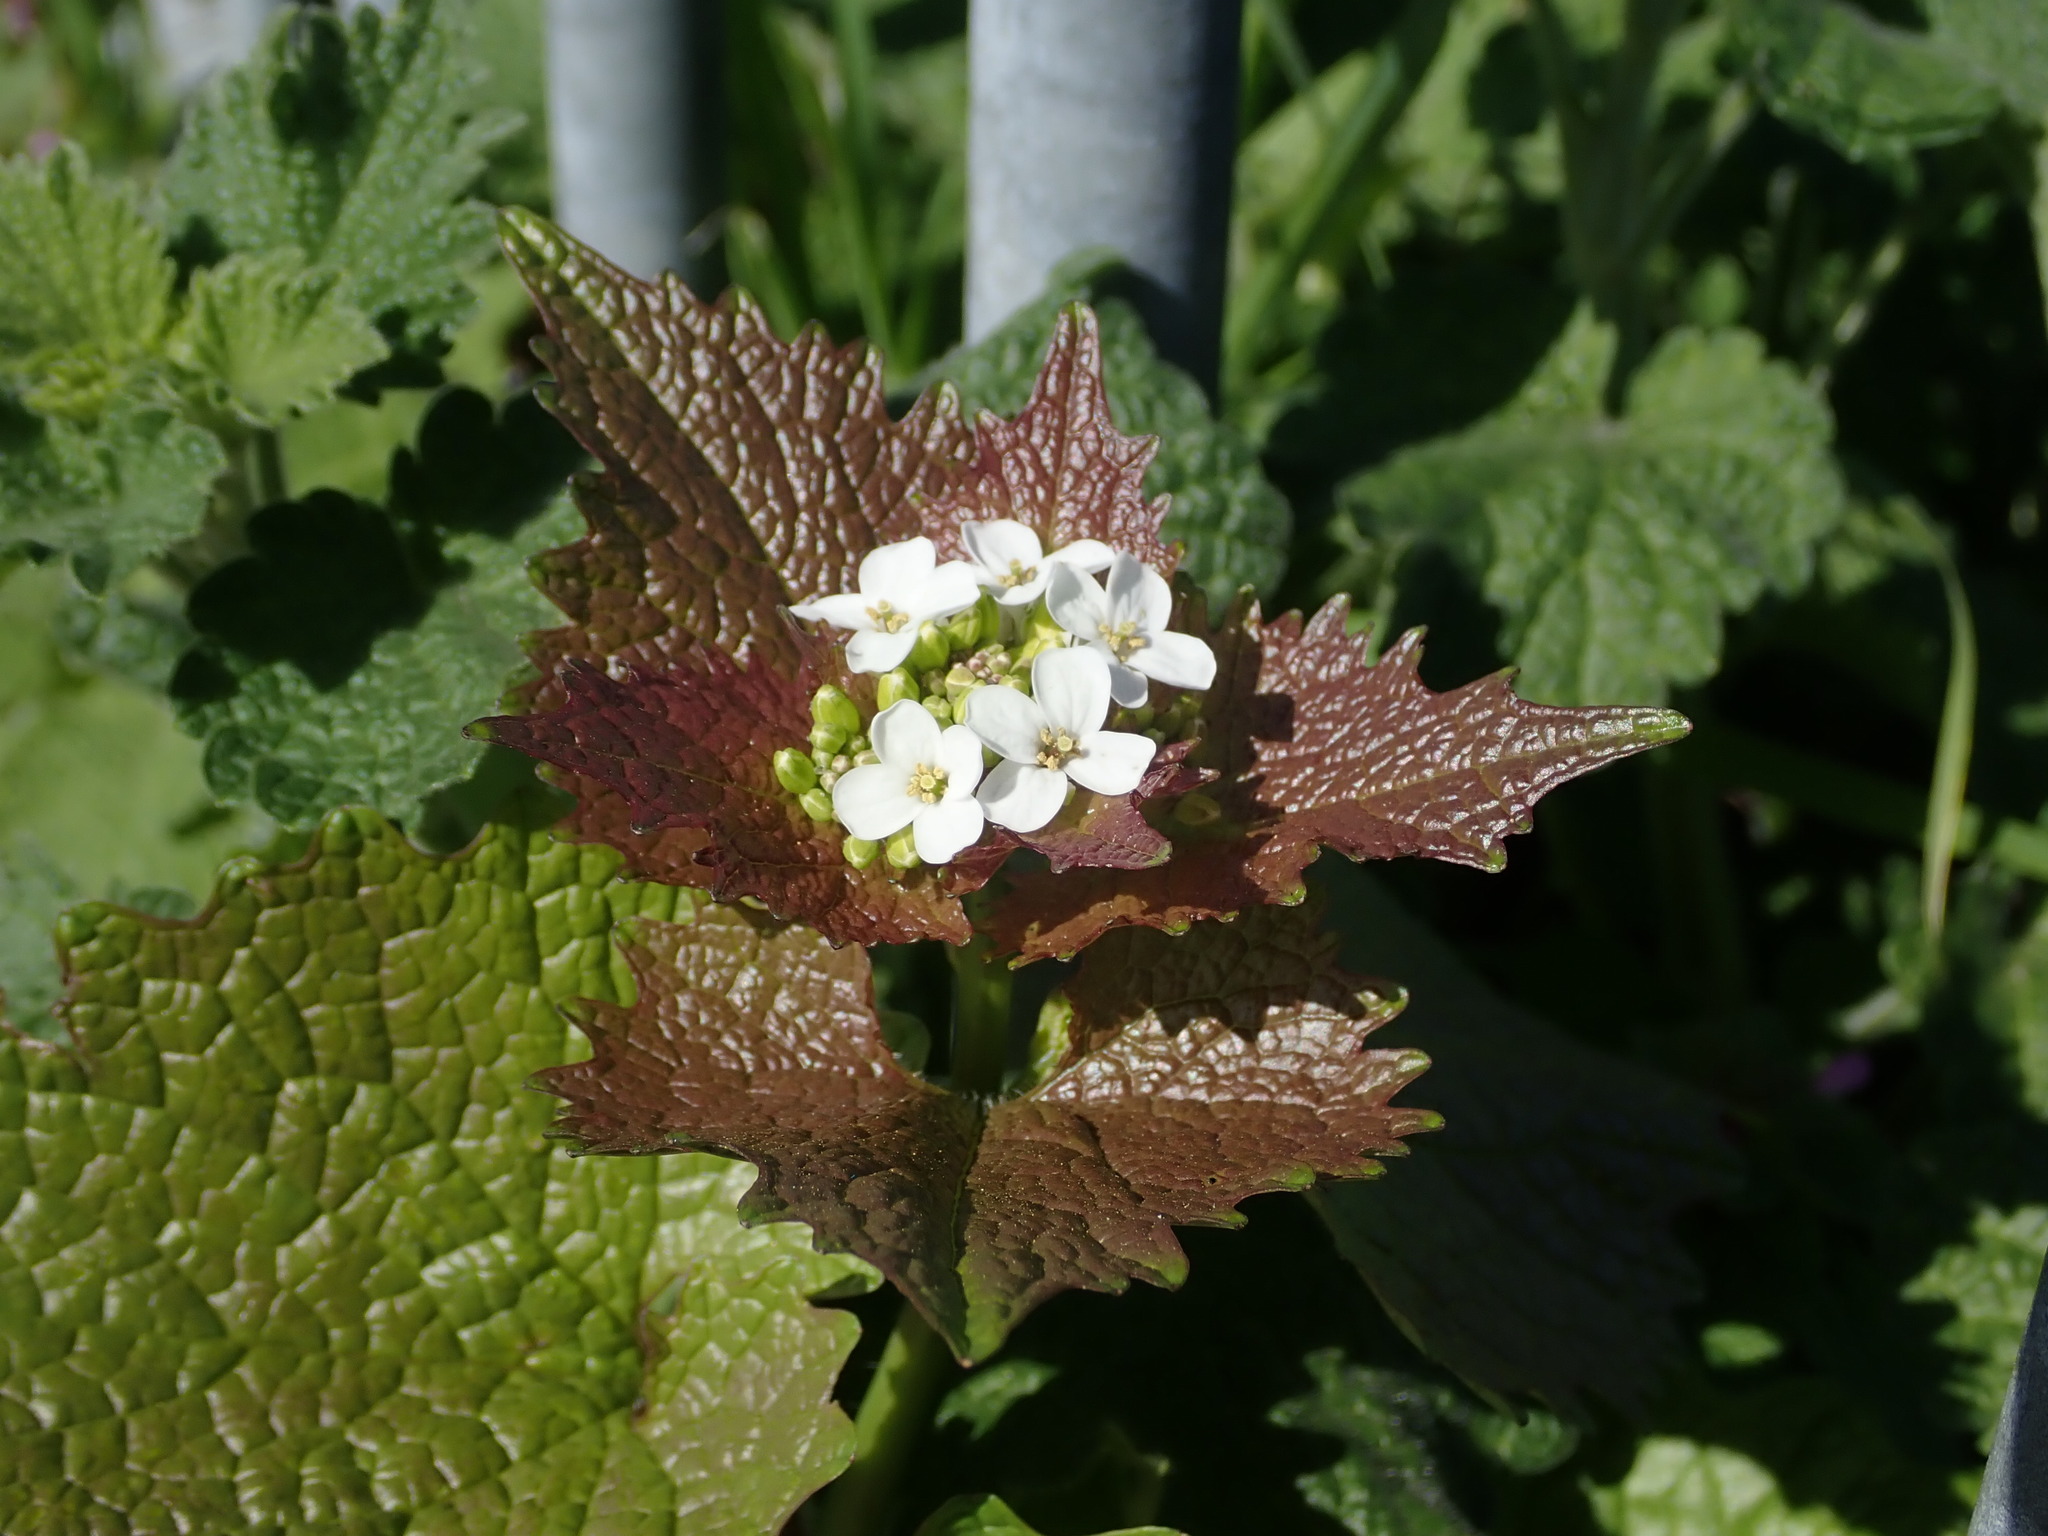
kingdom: Plantae
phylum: Tracheophyta
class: Magnoliopsida
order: Brassicales
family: Brassicaceae
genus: Alliaria
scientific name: Alliaria petiolata
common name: Garlic mustard
